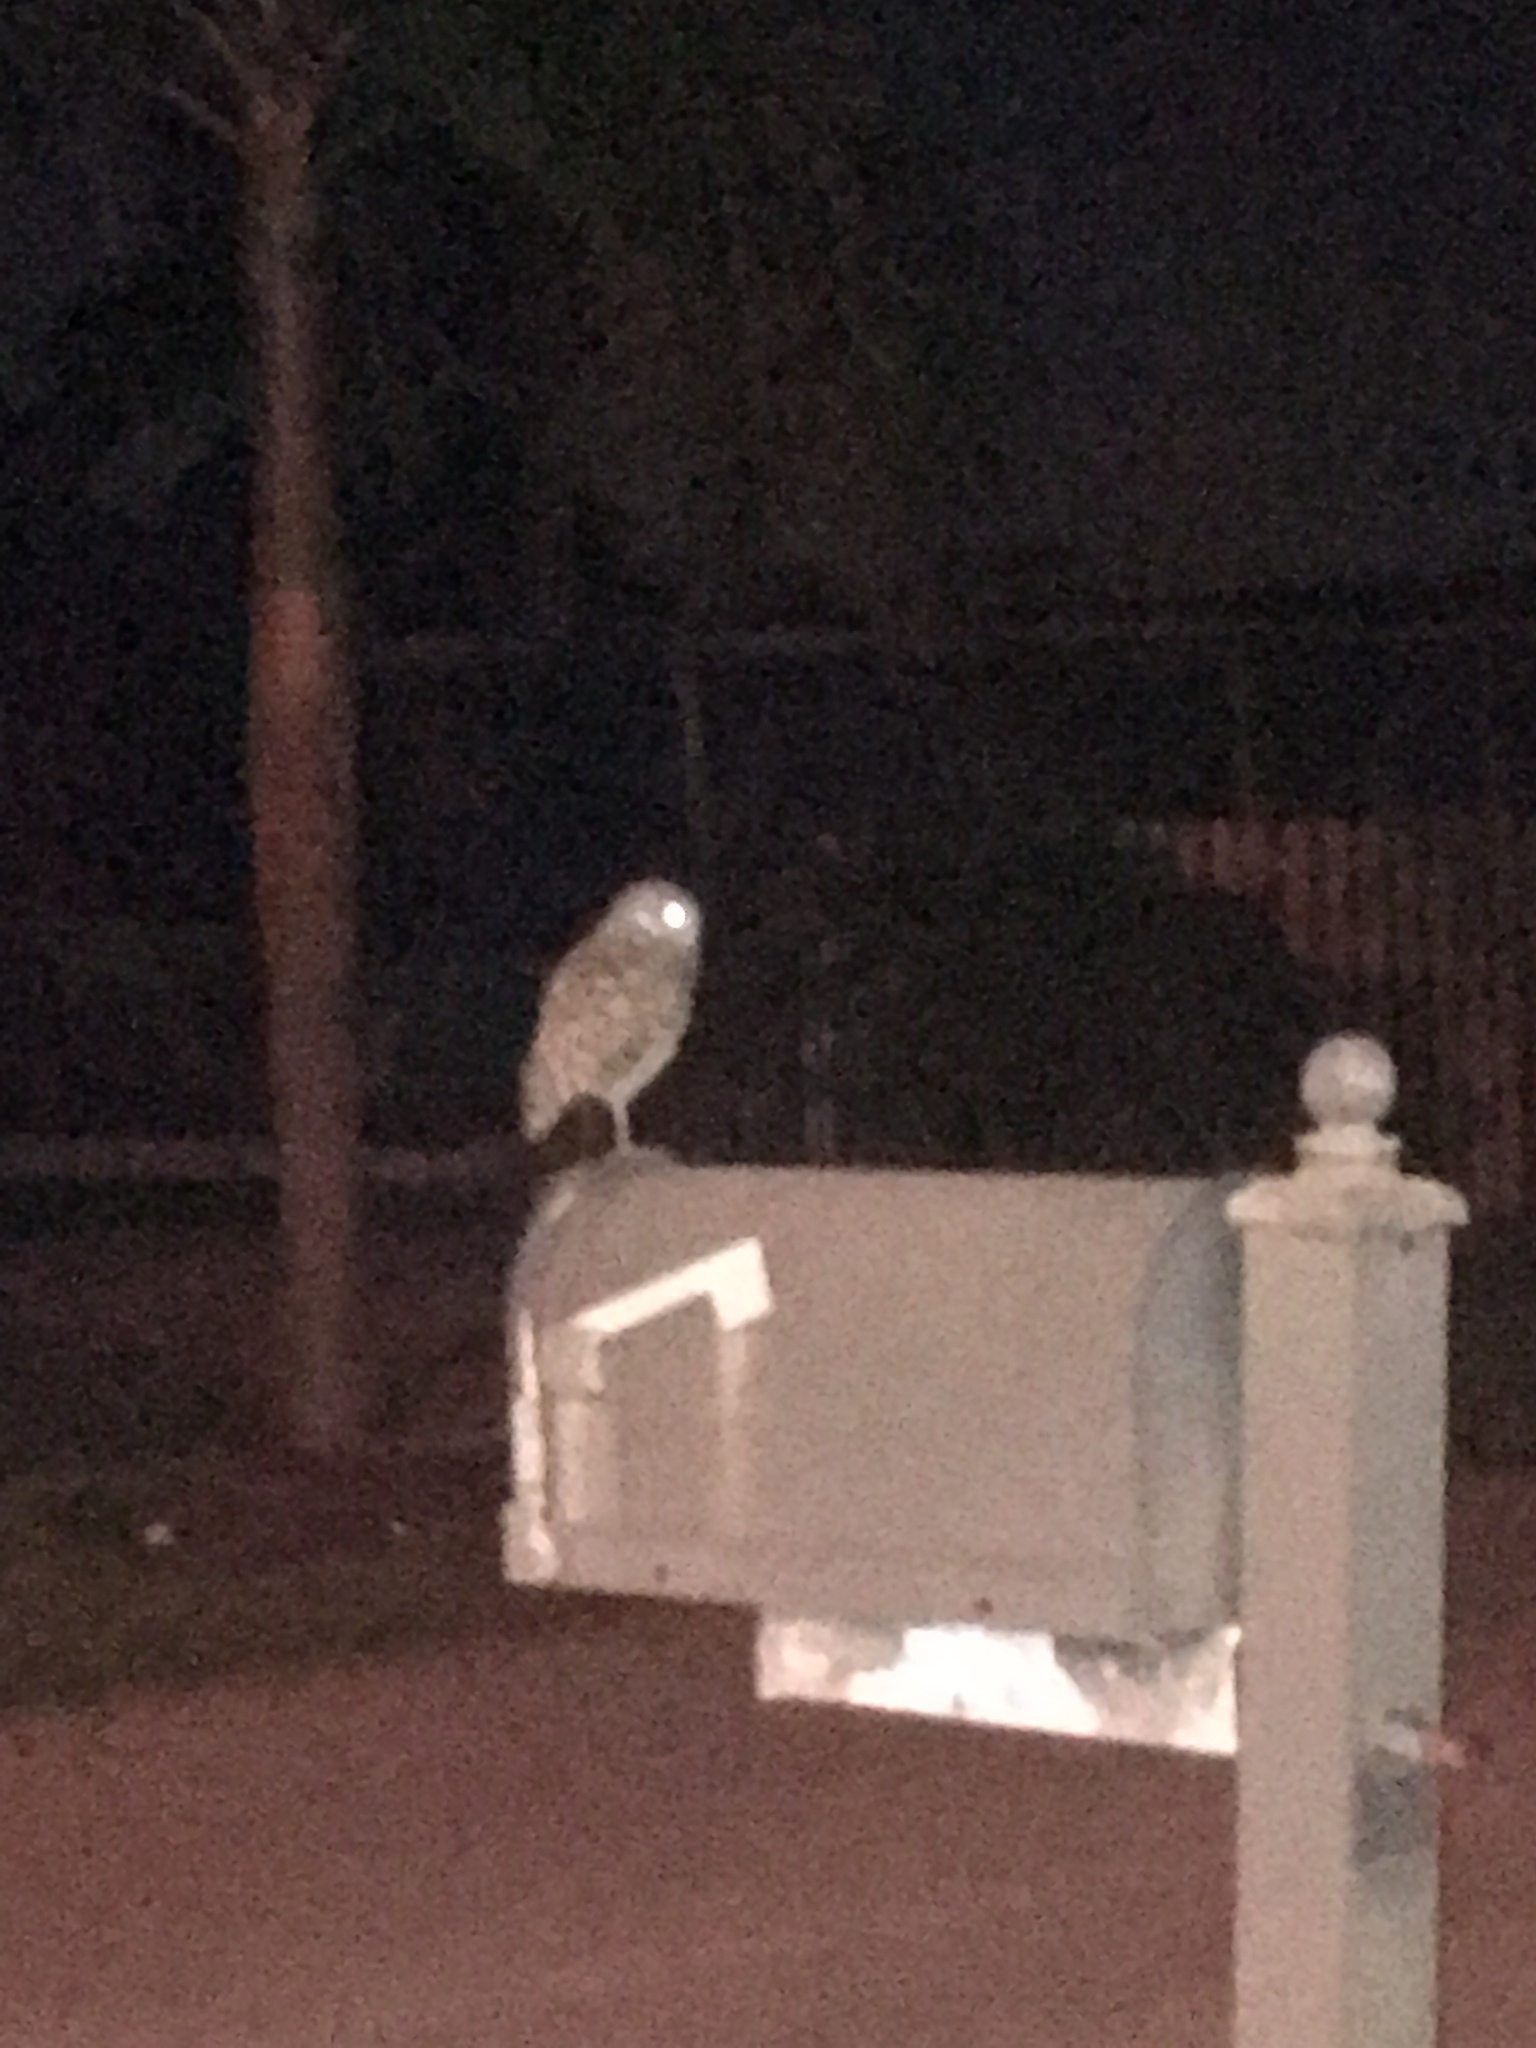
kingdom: Animalia
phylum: Chordata
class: Aves
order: Strigiformes
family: Strigidae
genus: Athene
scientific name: Athene cunicularia
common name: Burrowing owl
